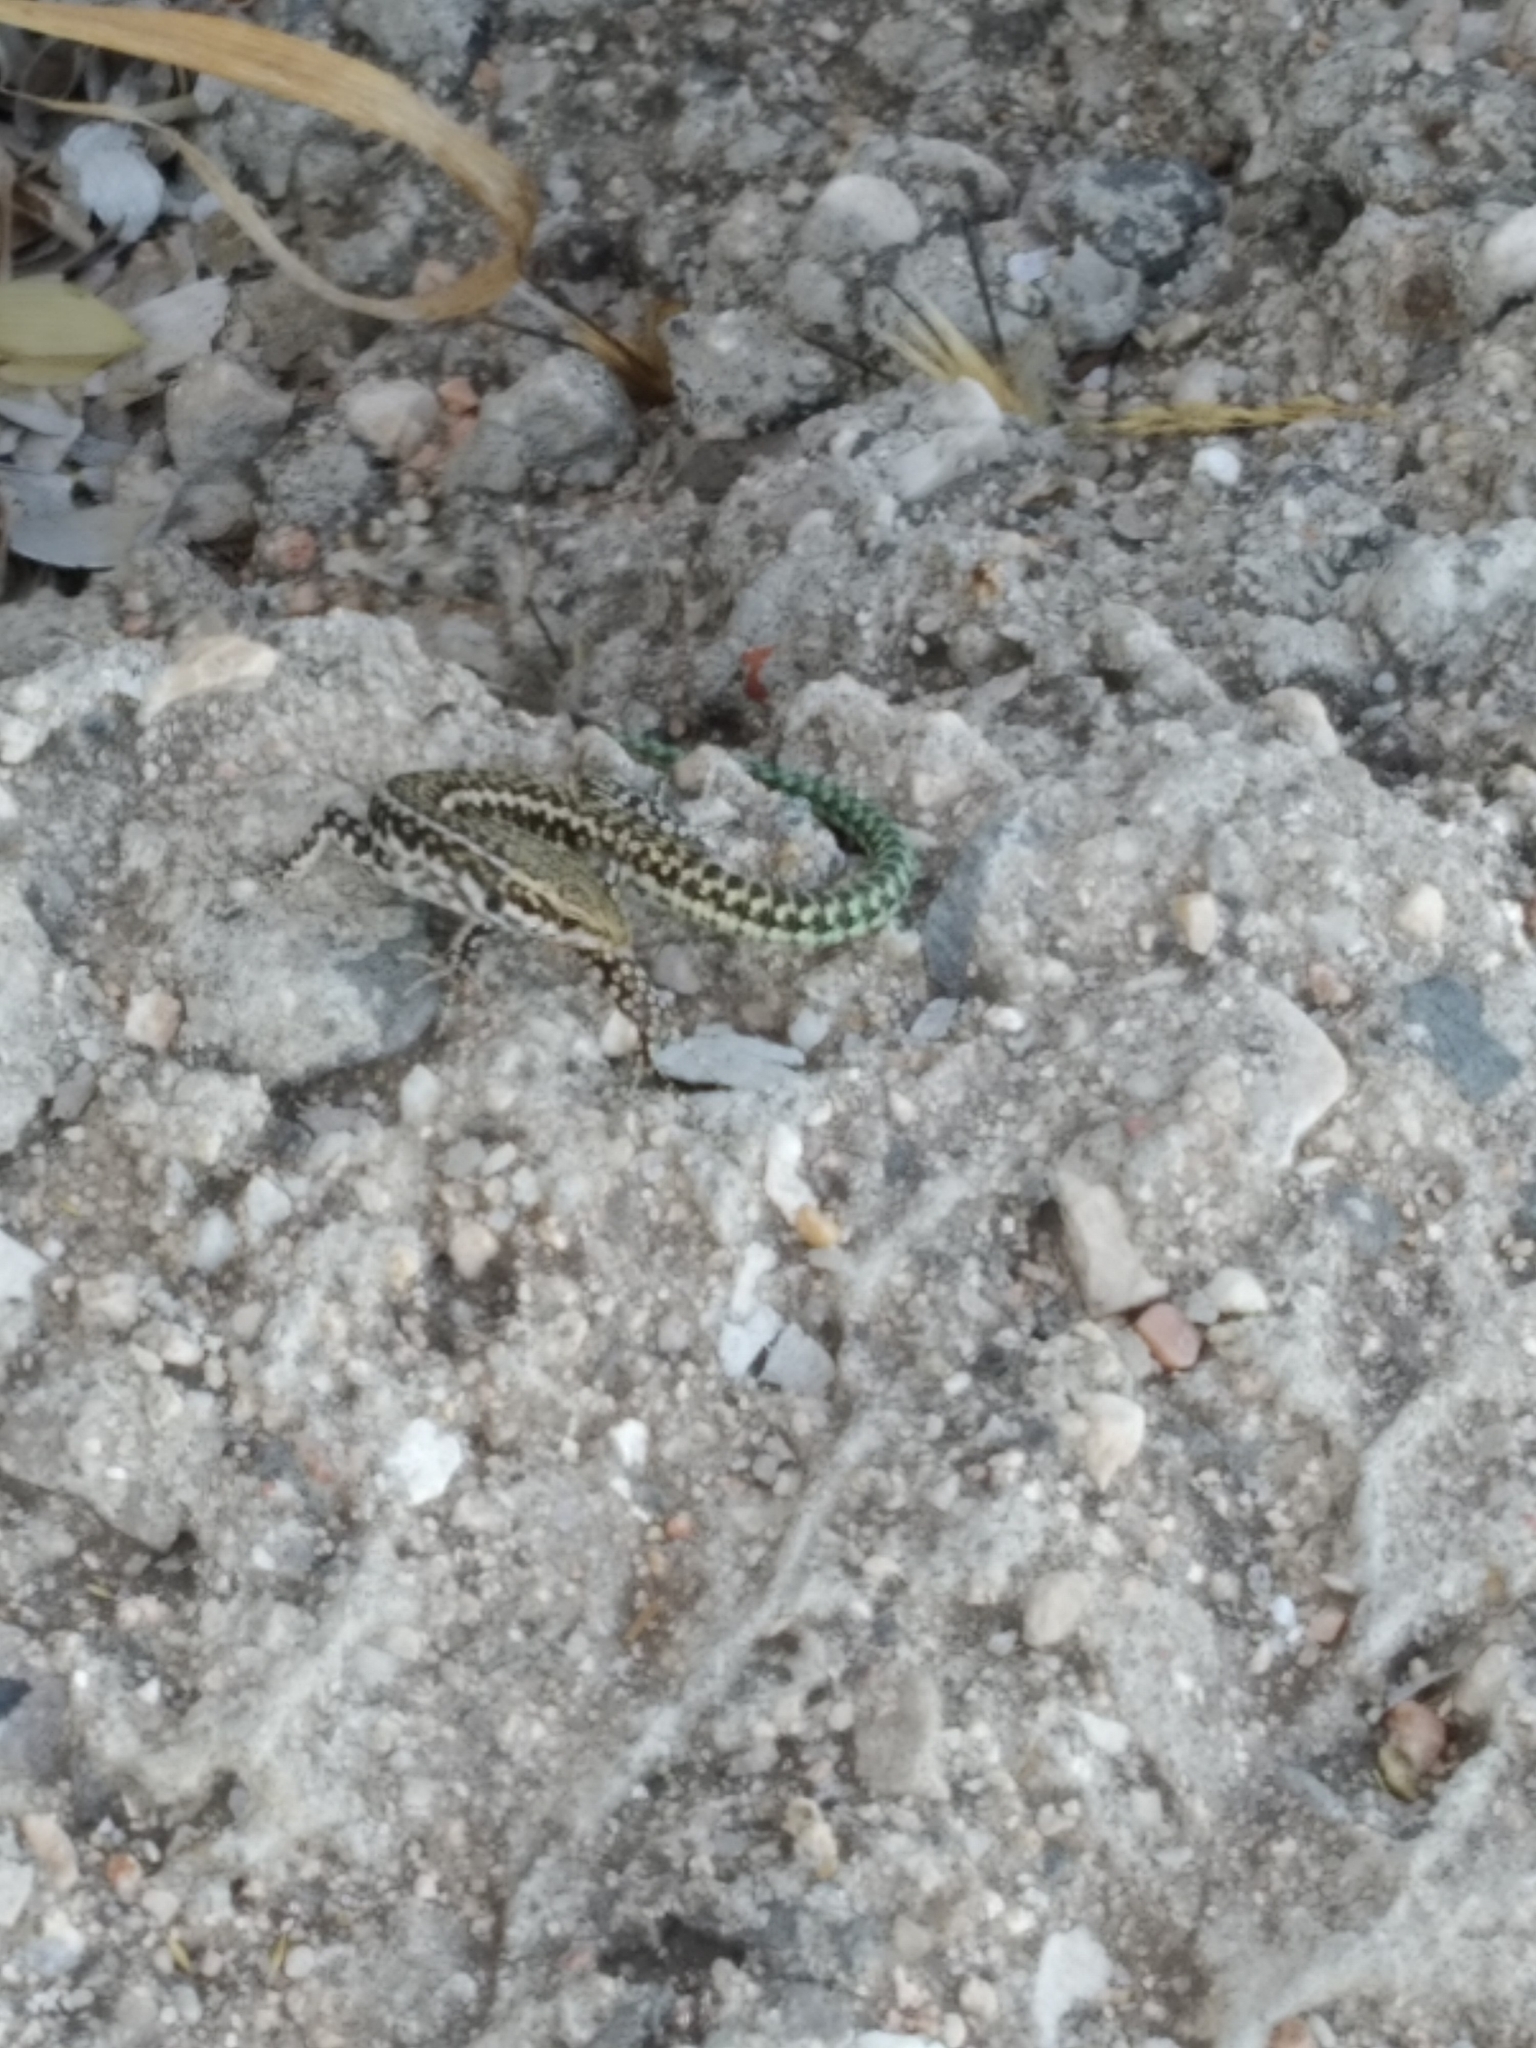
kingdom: Animalia
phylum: Chordata
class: Squamata
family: Lacertidae
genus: Podarcis
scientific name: Podarcis tiliguerta
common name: Tyrrhenian wall lizard
